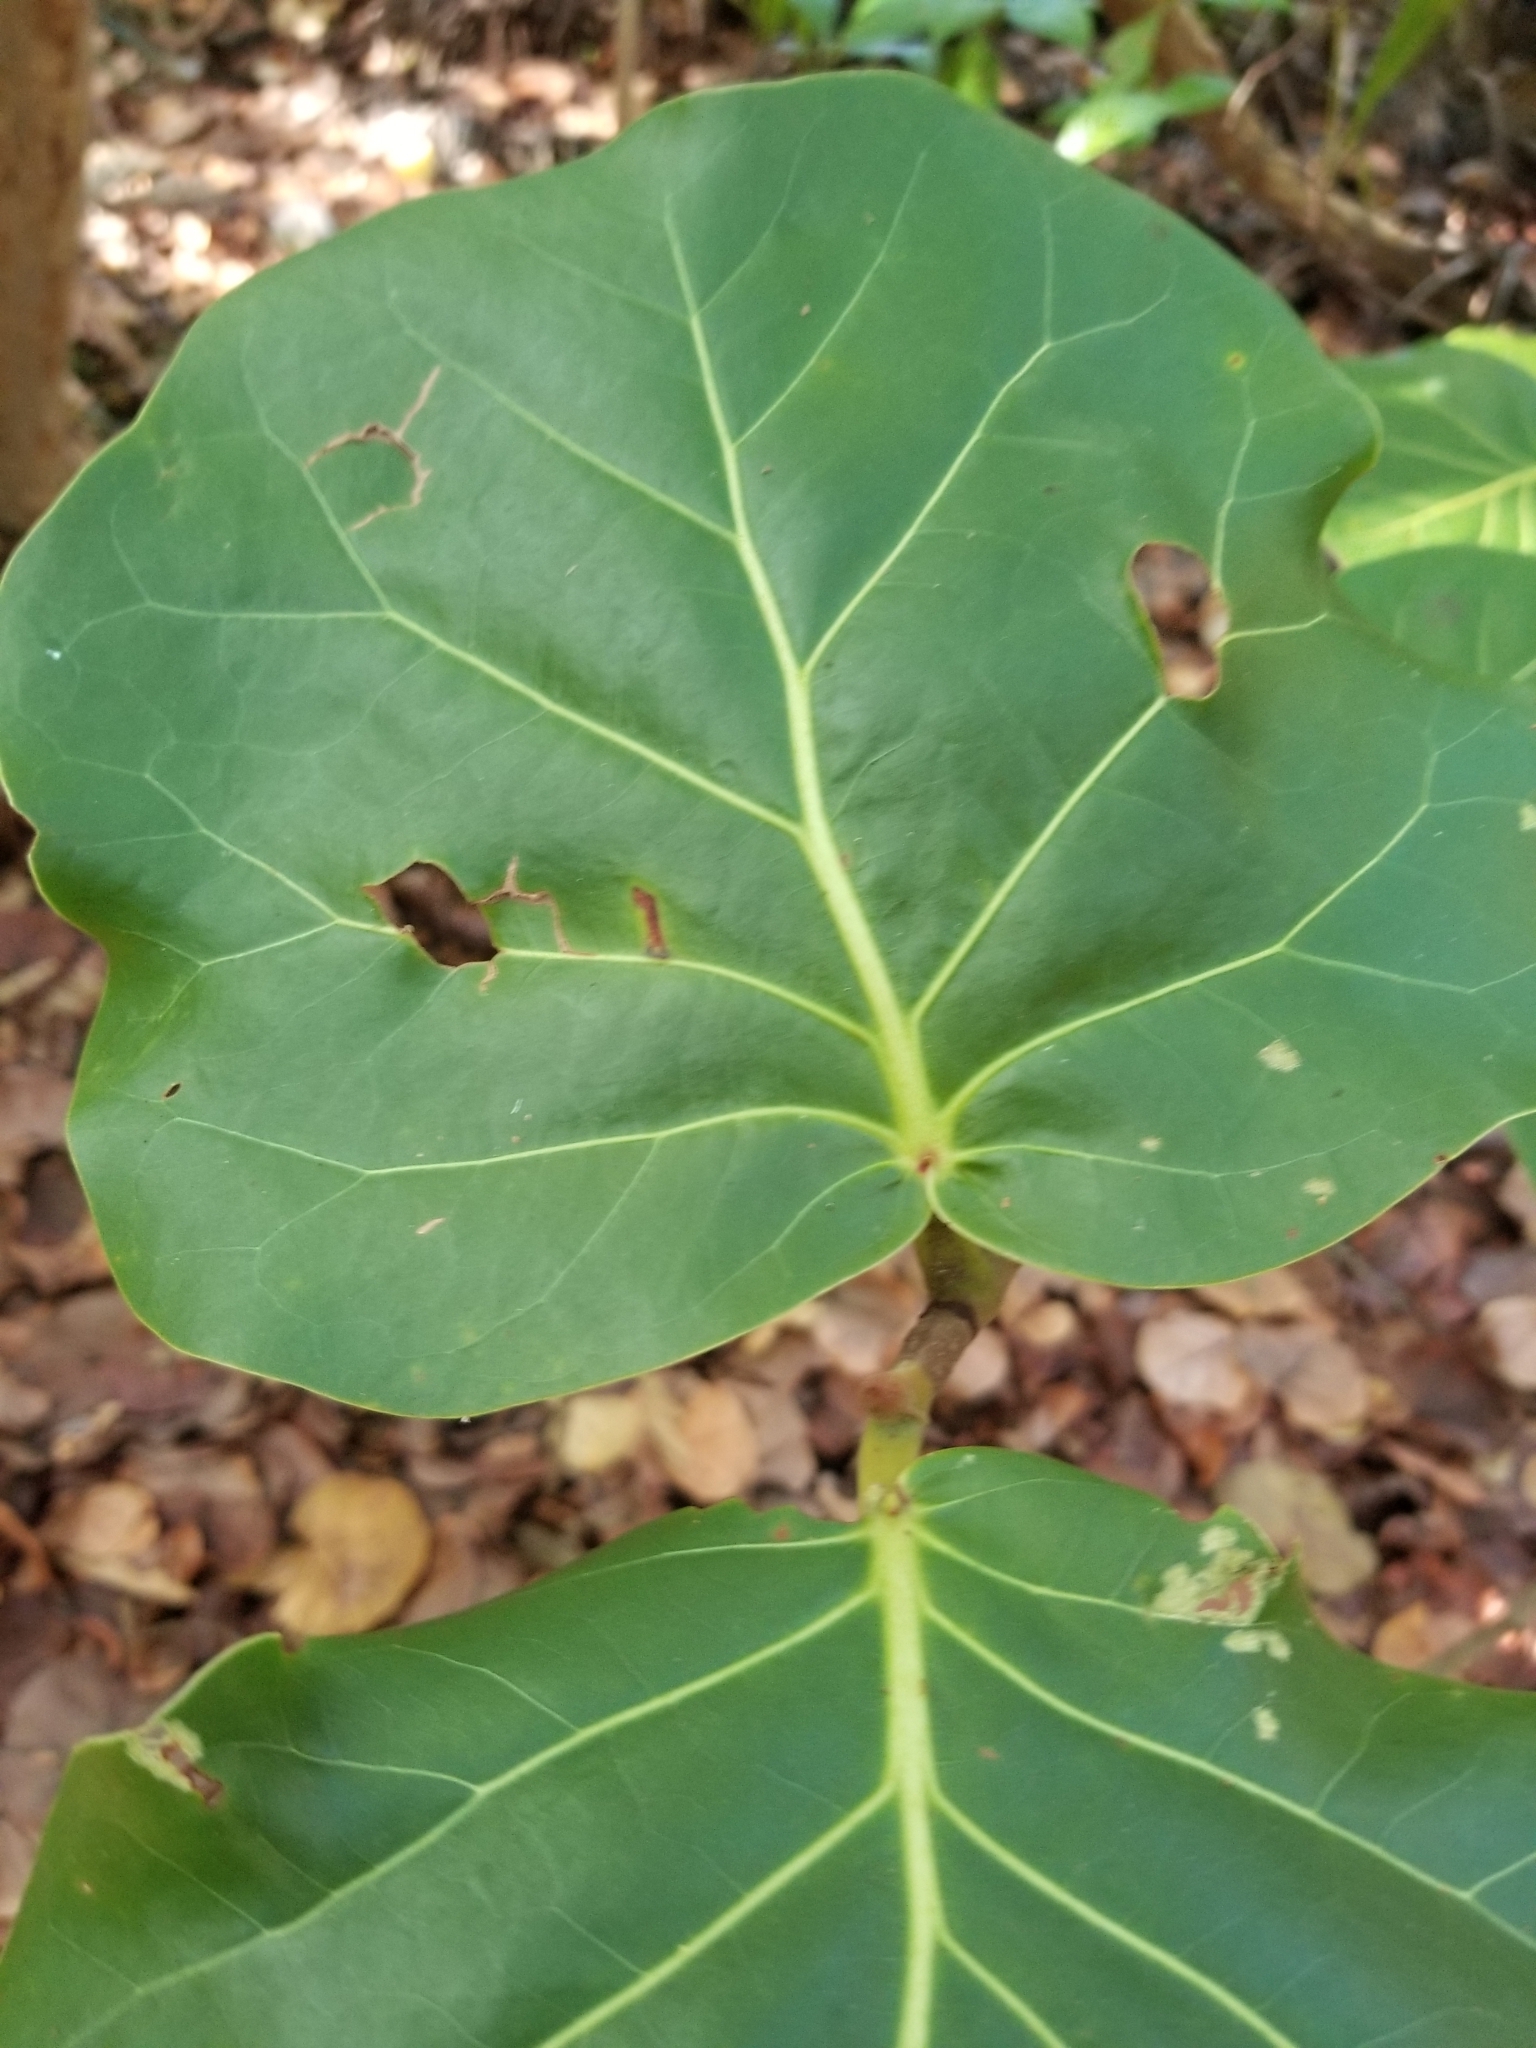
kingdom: Plantae
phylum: Tracheophyta
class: Magnoliopsida
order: Caryophyllales
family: Polygonaceae
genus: Coccoloba
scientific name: Coccoloba uvifera
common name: Seagrape
